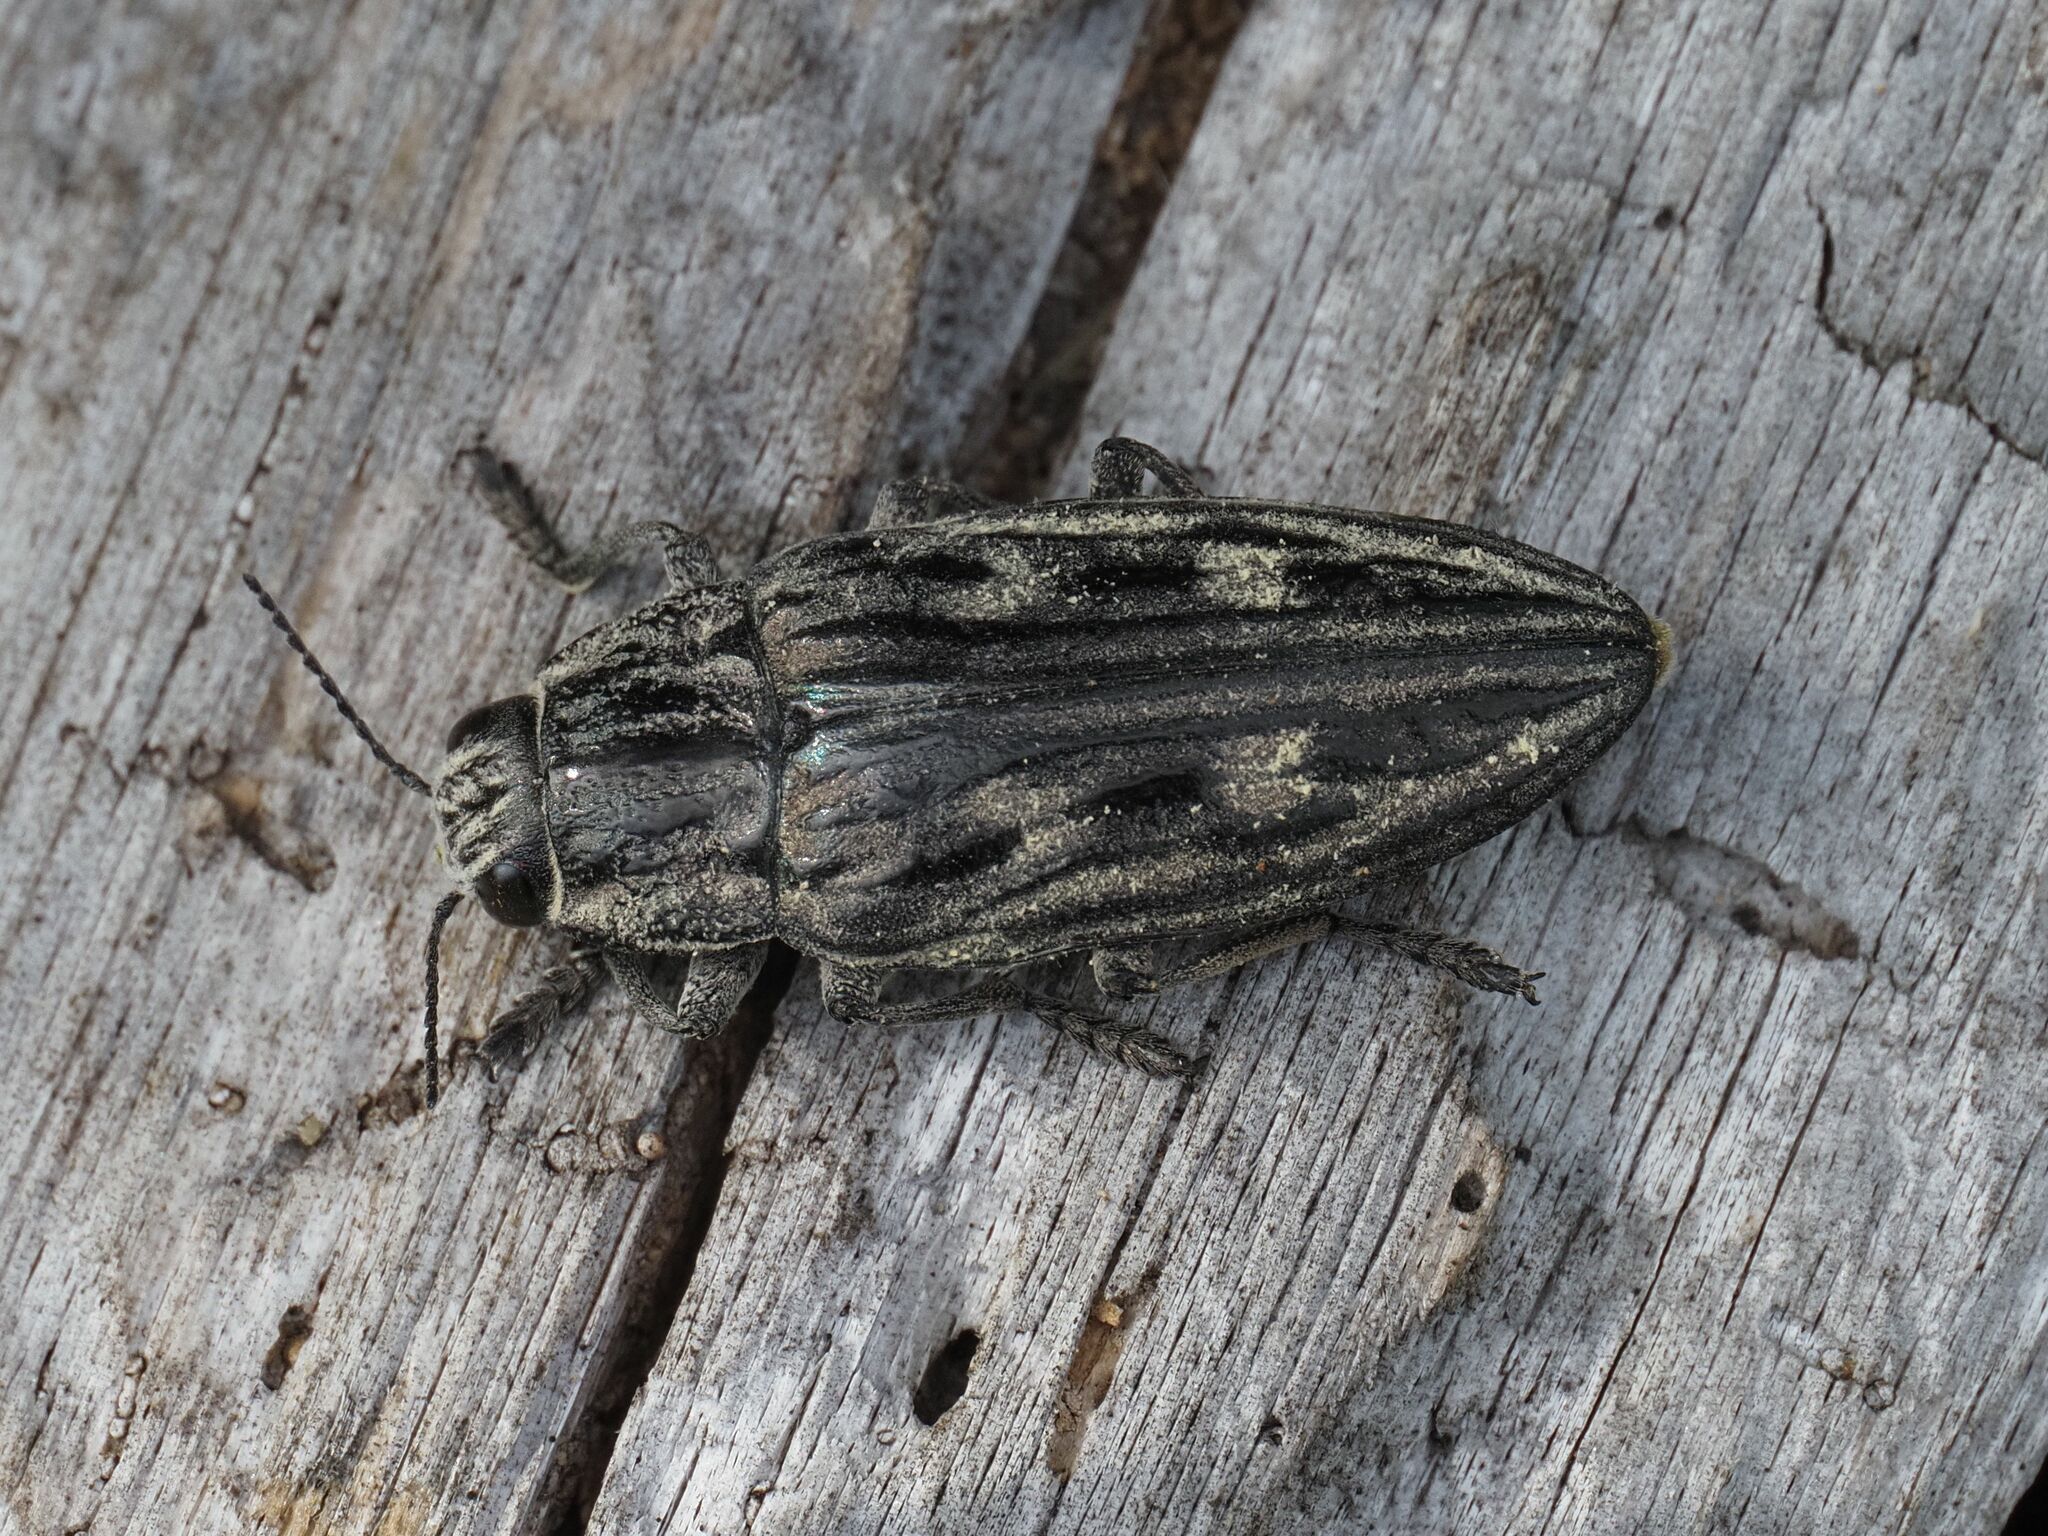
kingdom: Animalia
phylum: Arthropoda
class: Insecta
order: Coleoptera
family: Buprestidae
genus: Chalcophora
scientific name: Chalcophora mariana
